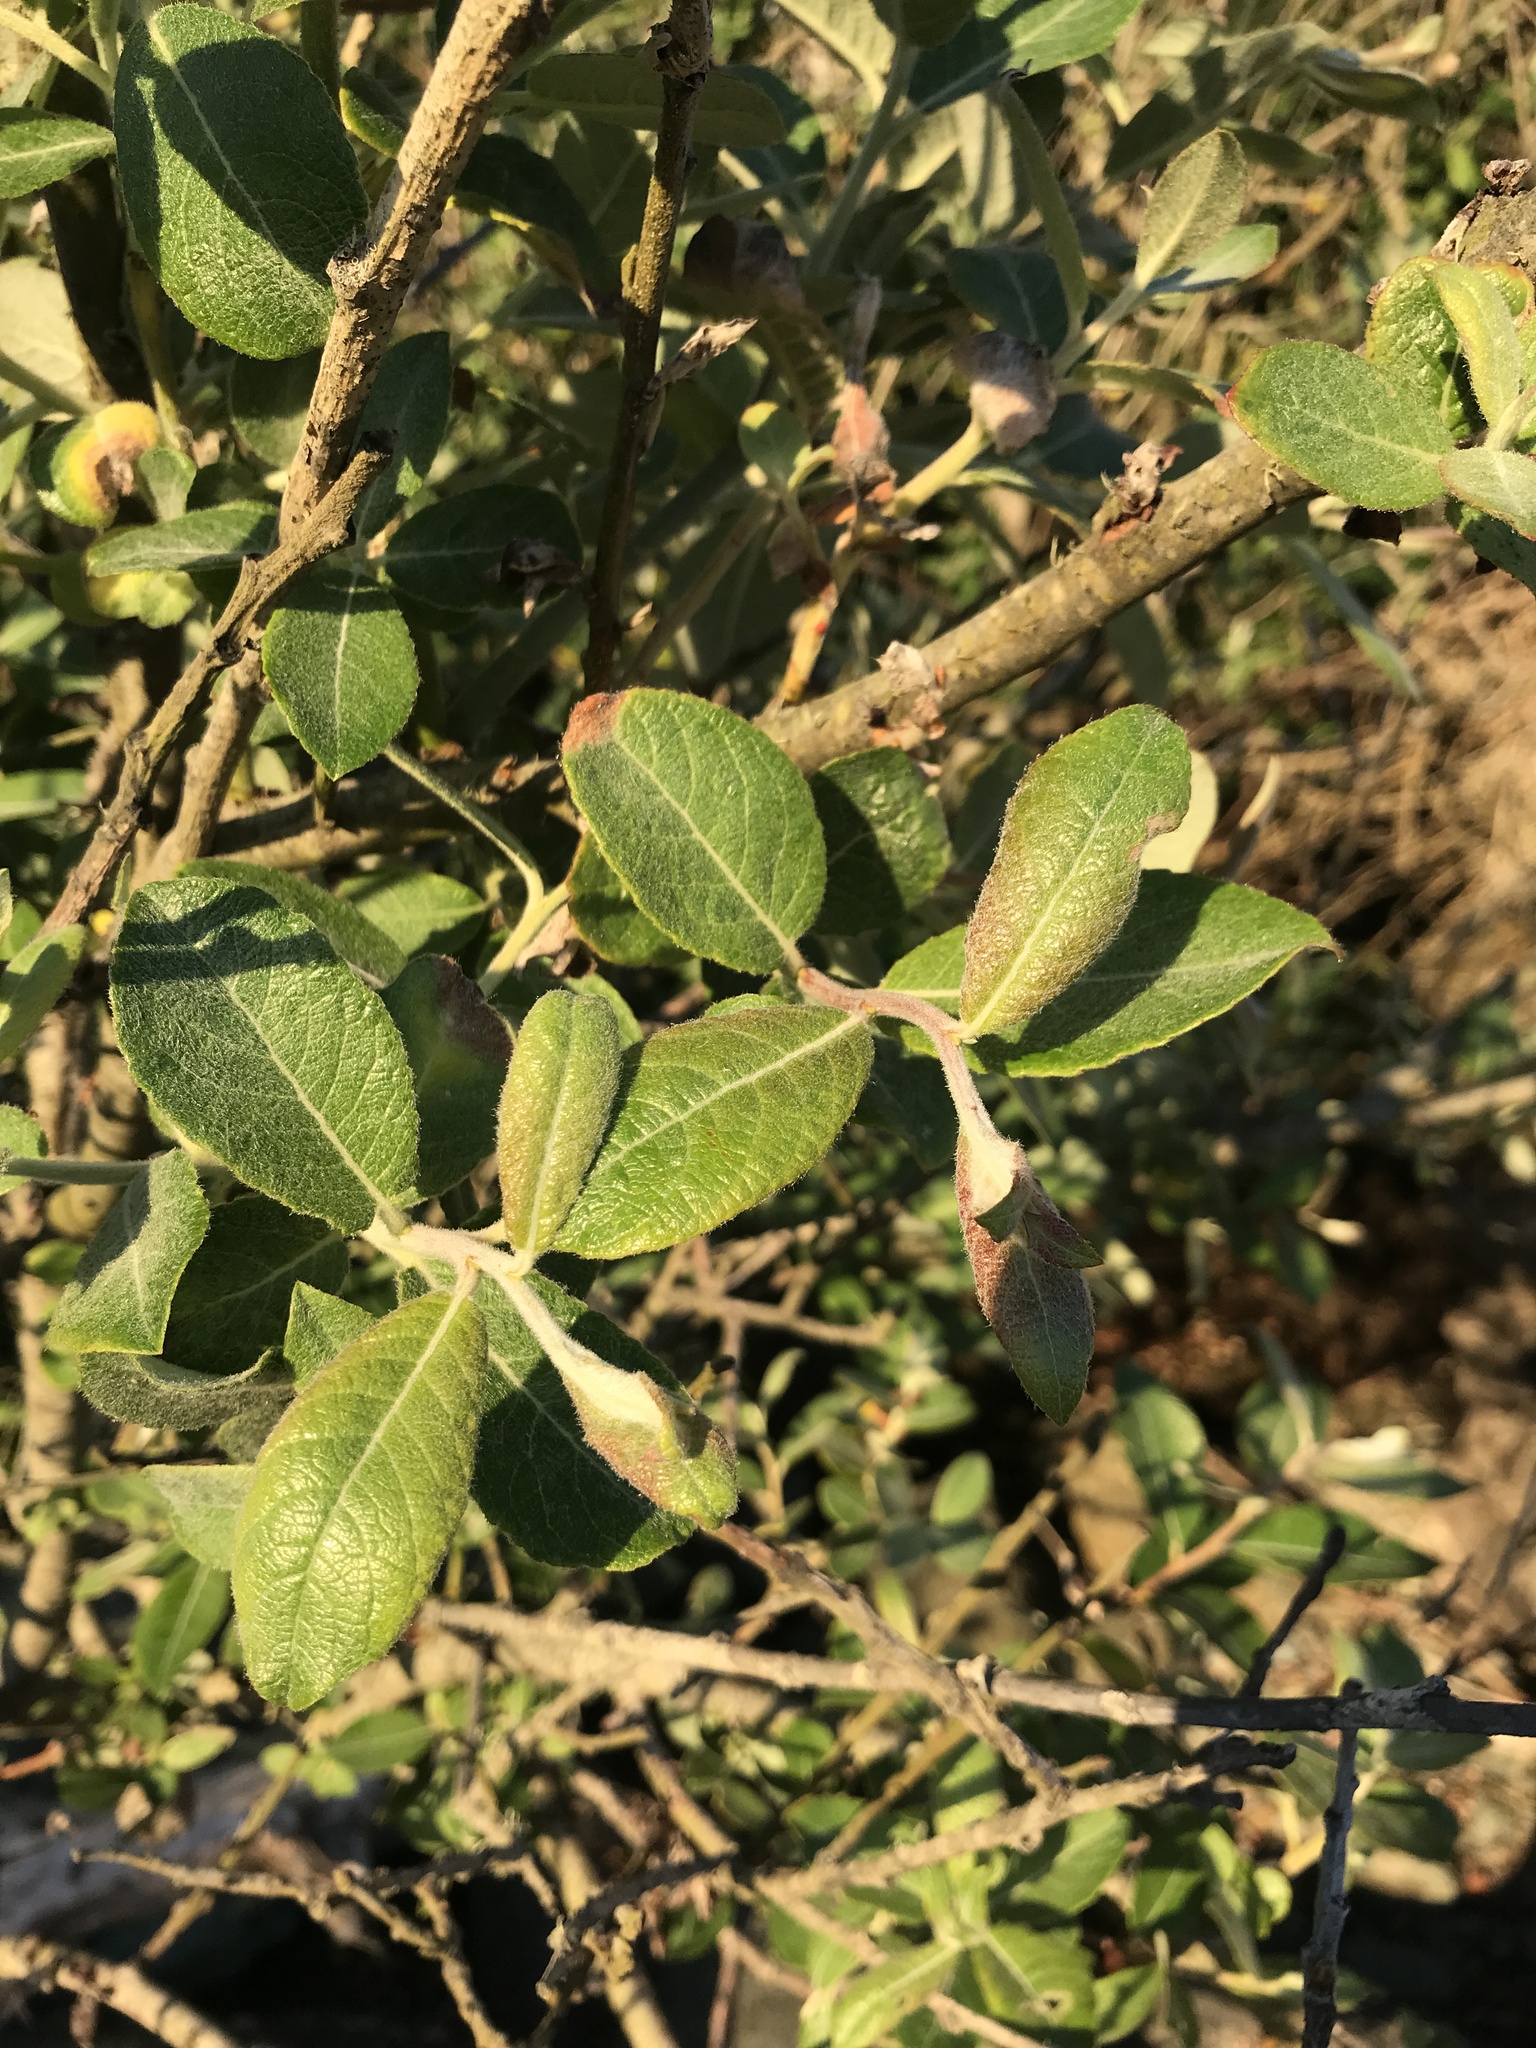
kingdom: Plantae
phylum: Tracheophyta
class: Magnoliopsida
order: Malpighiales
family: Salicaceae
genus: Salix
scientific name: Salix hookeriana
